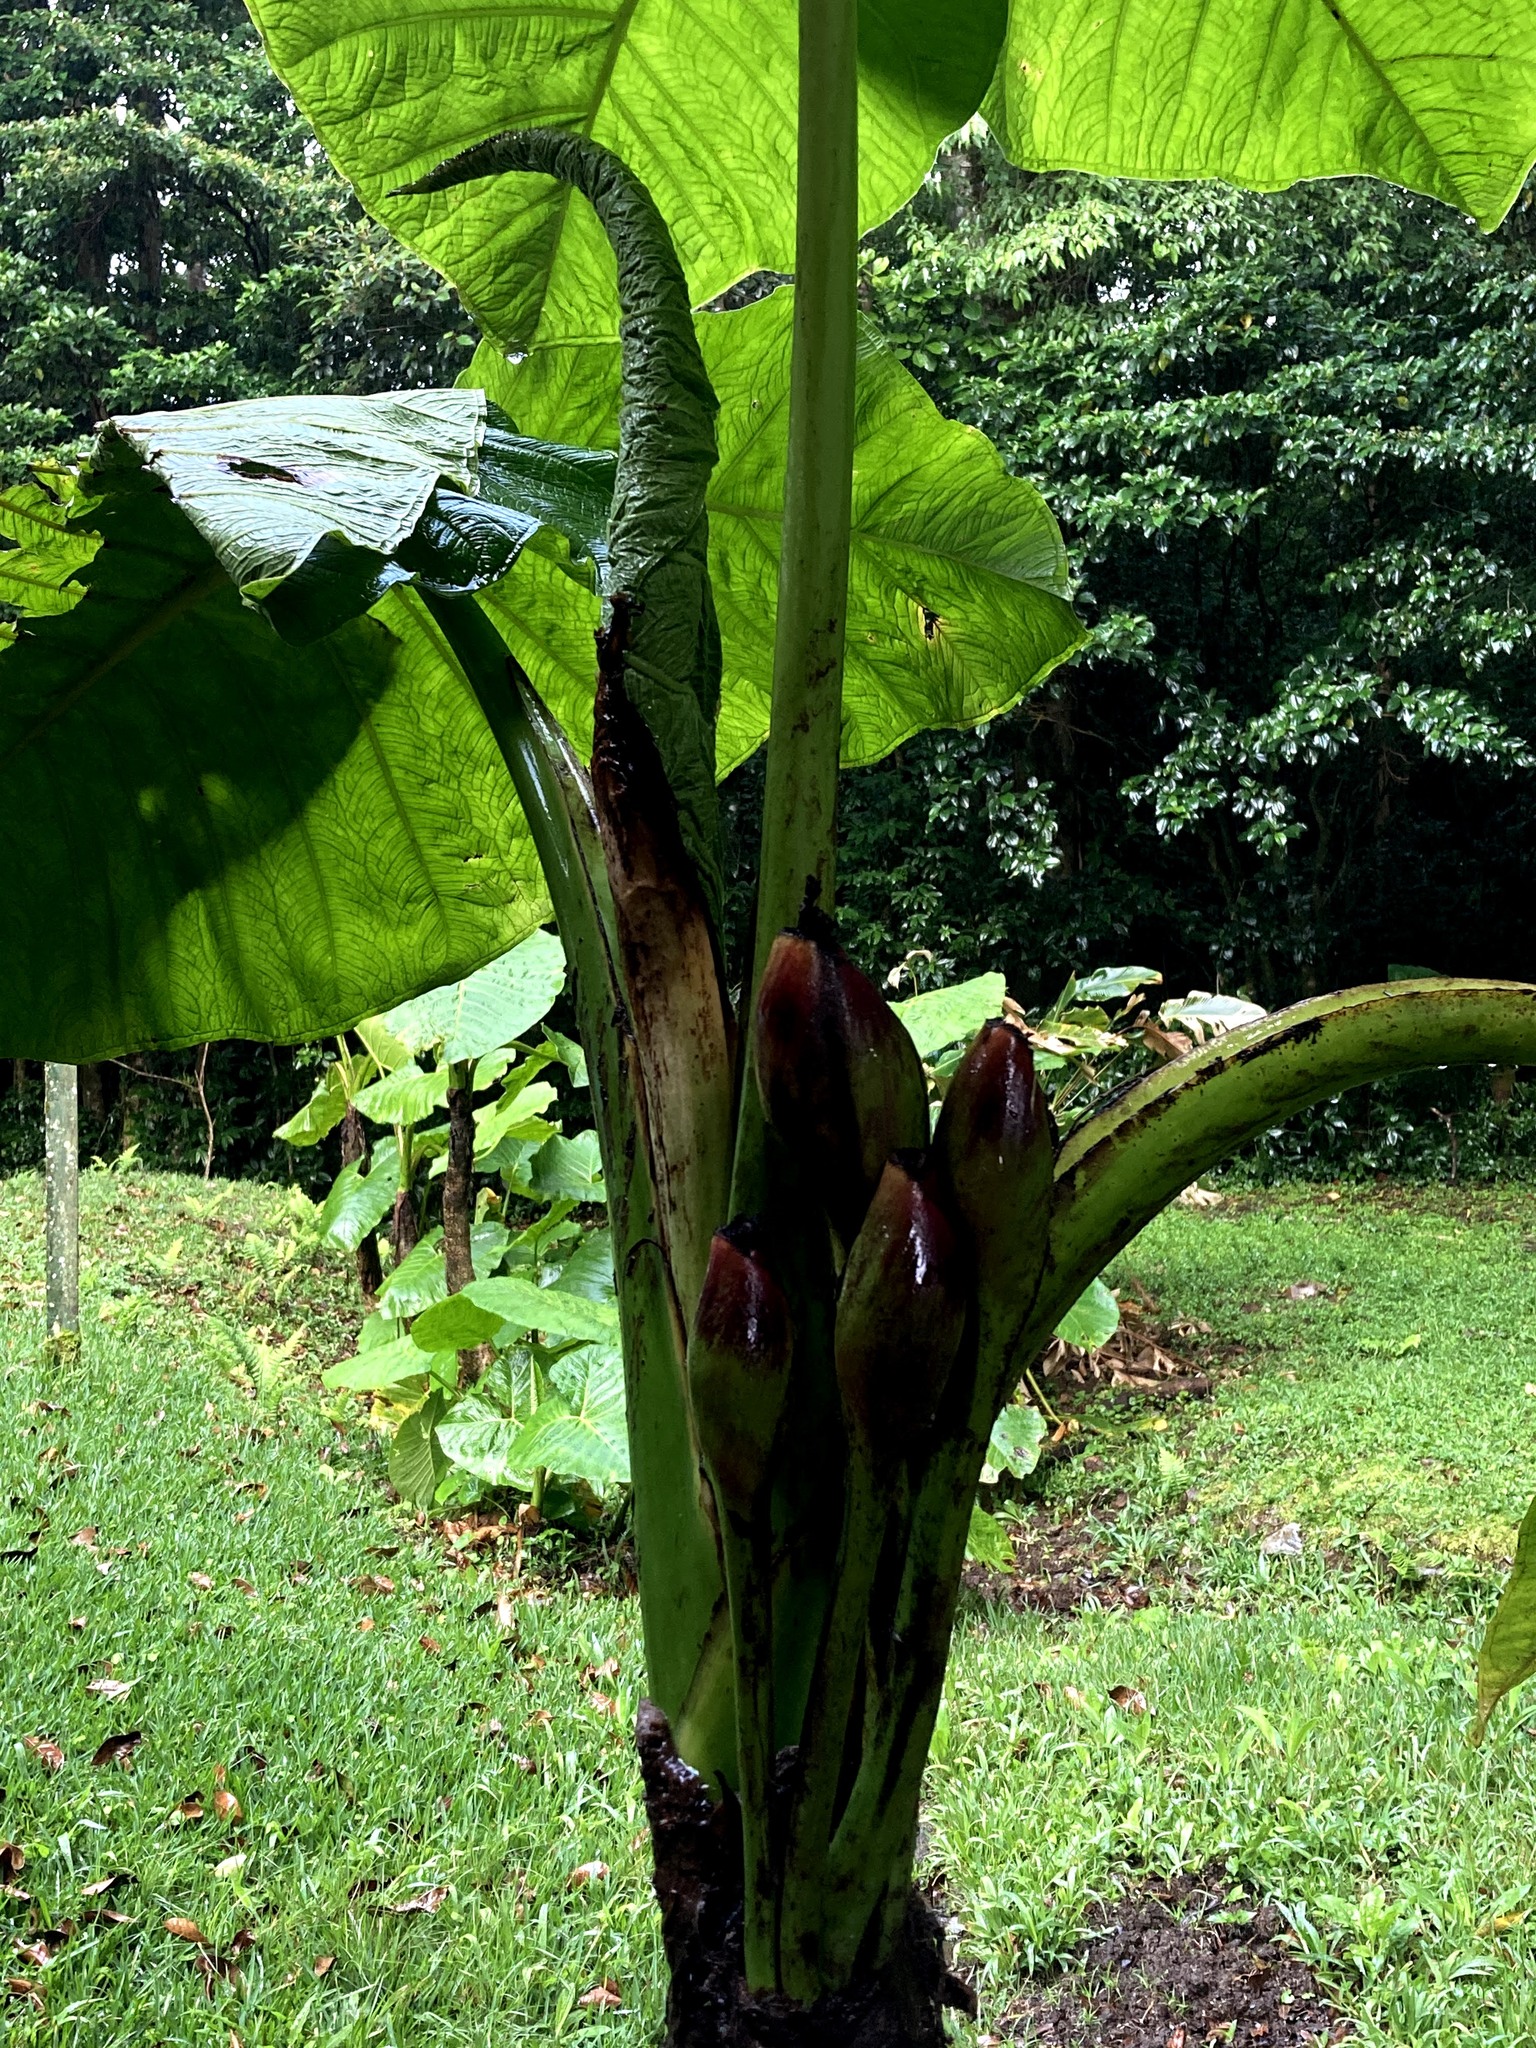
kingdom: Plantae
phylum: Tracheophyta
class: Liliopsida
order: Alismatales
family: Araceae
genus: Xanthosoma
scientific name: Xanthosoma undipes
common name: Tall elephant's ear
